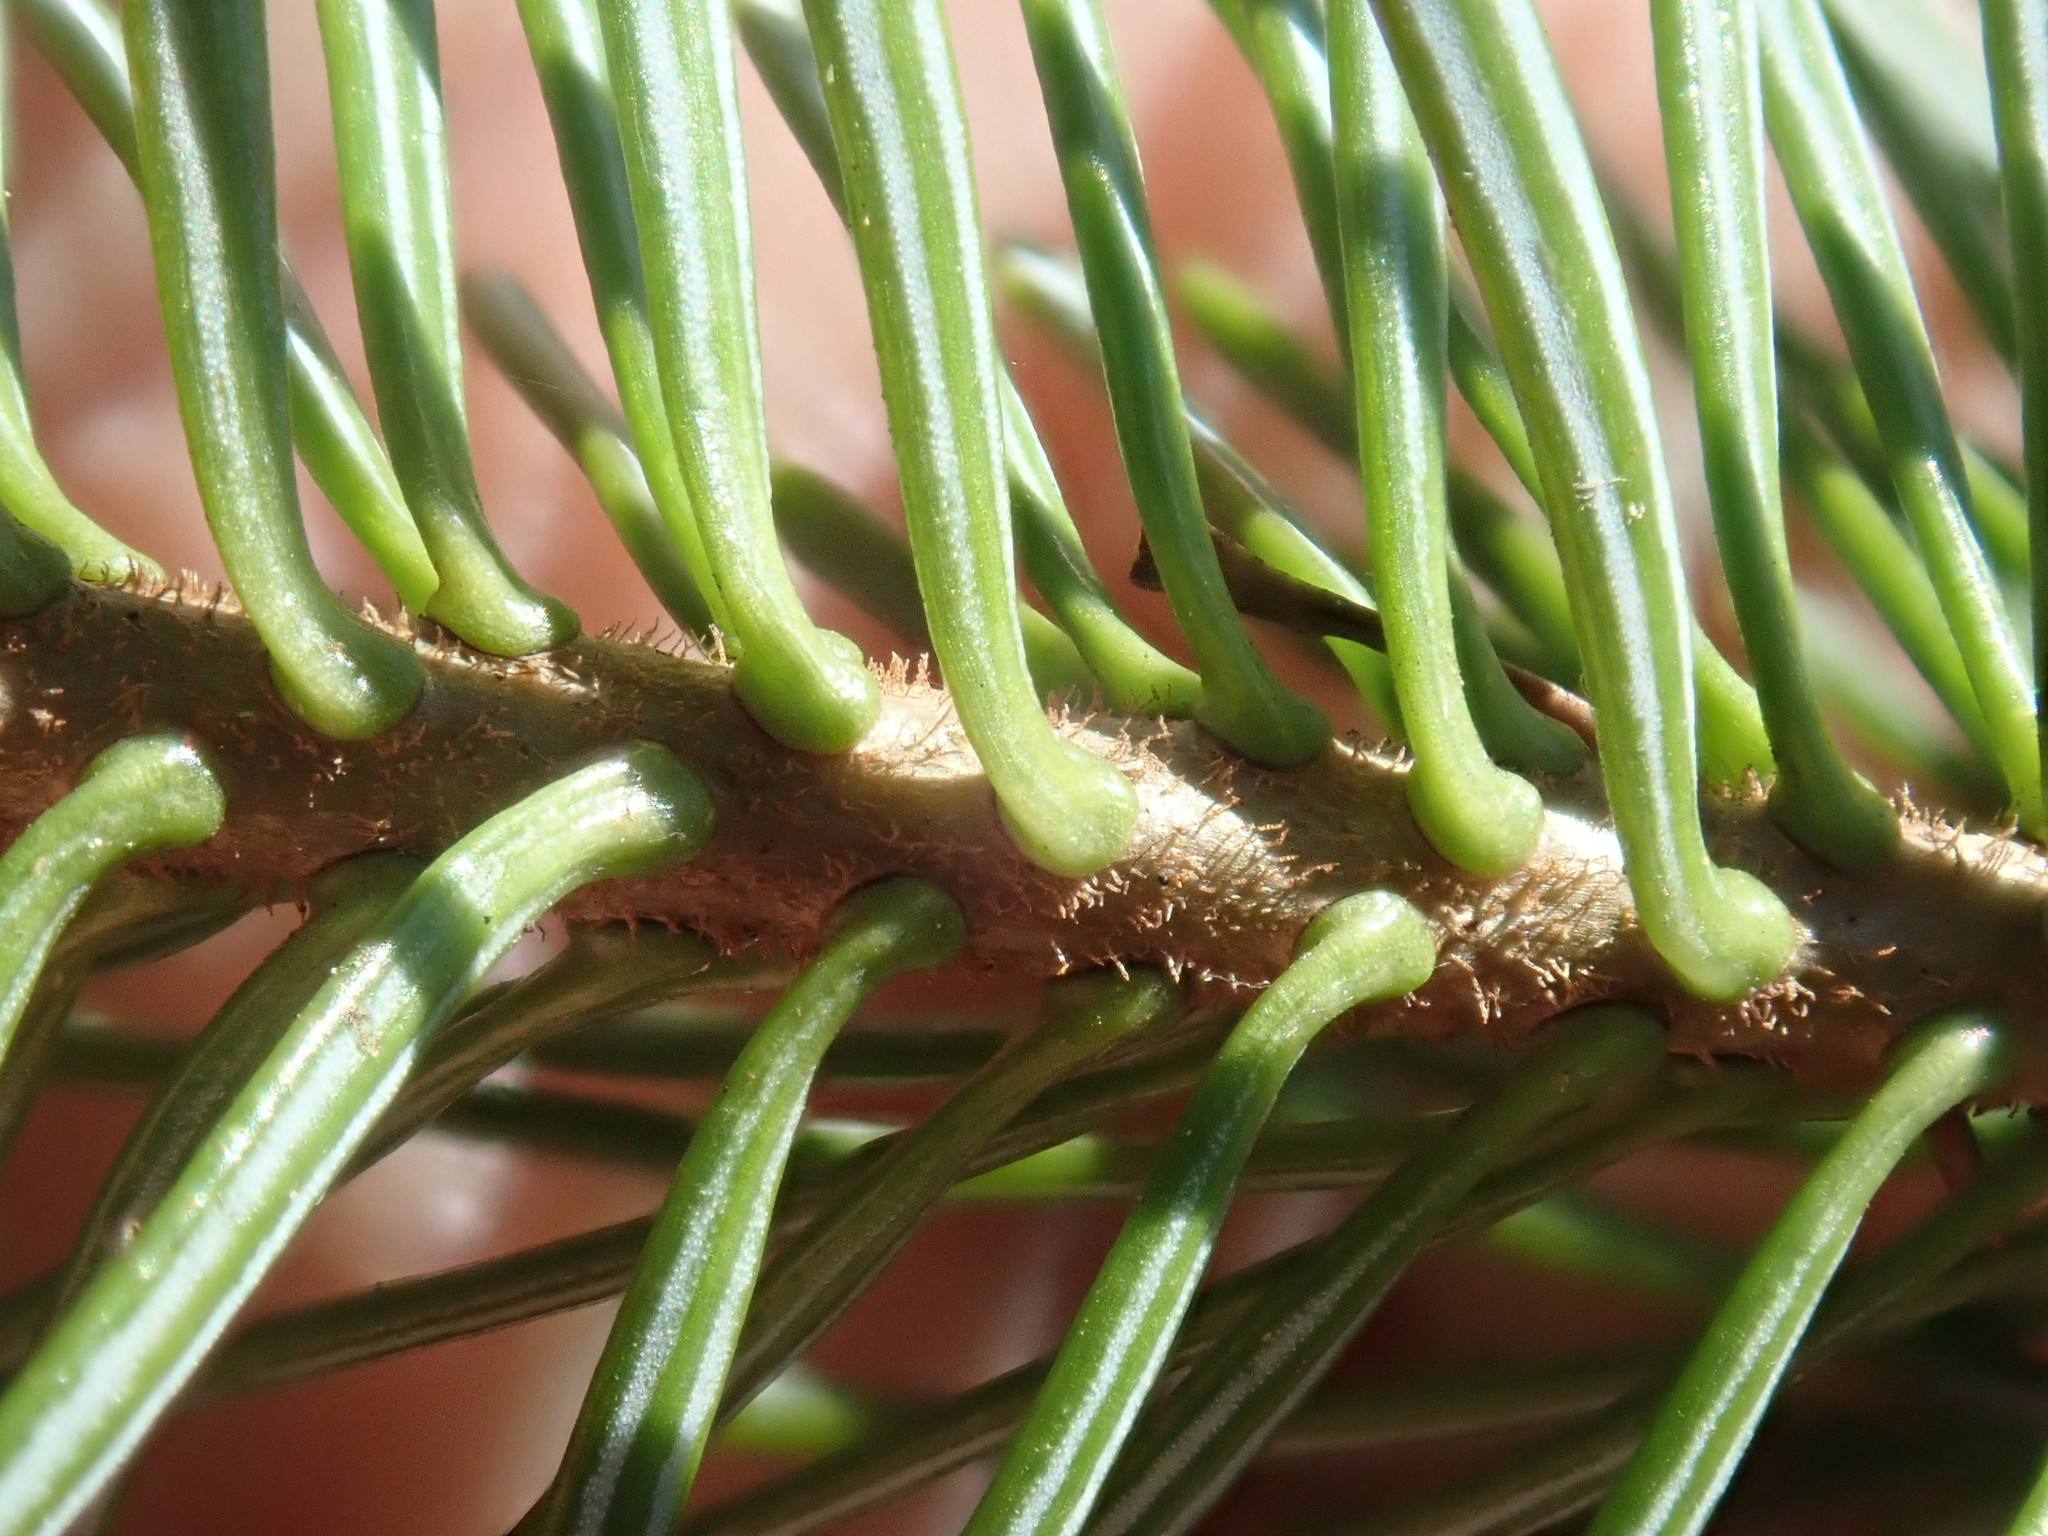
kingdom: Plantae
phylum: Tracheophyta
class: Pinopsida
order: Pinales
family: Pinaceae
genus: Abies
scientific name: Abies balsamea
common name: Balsam fir
